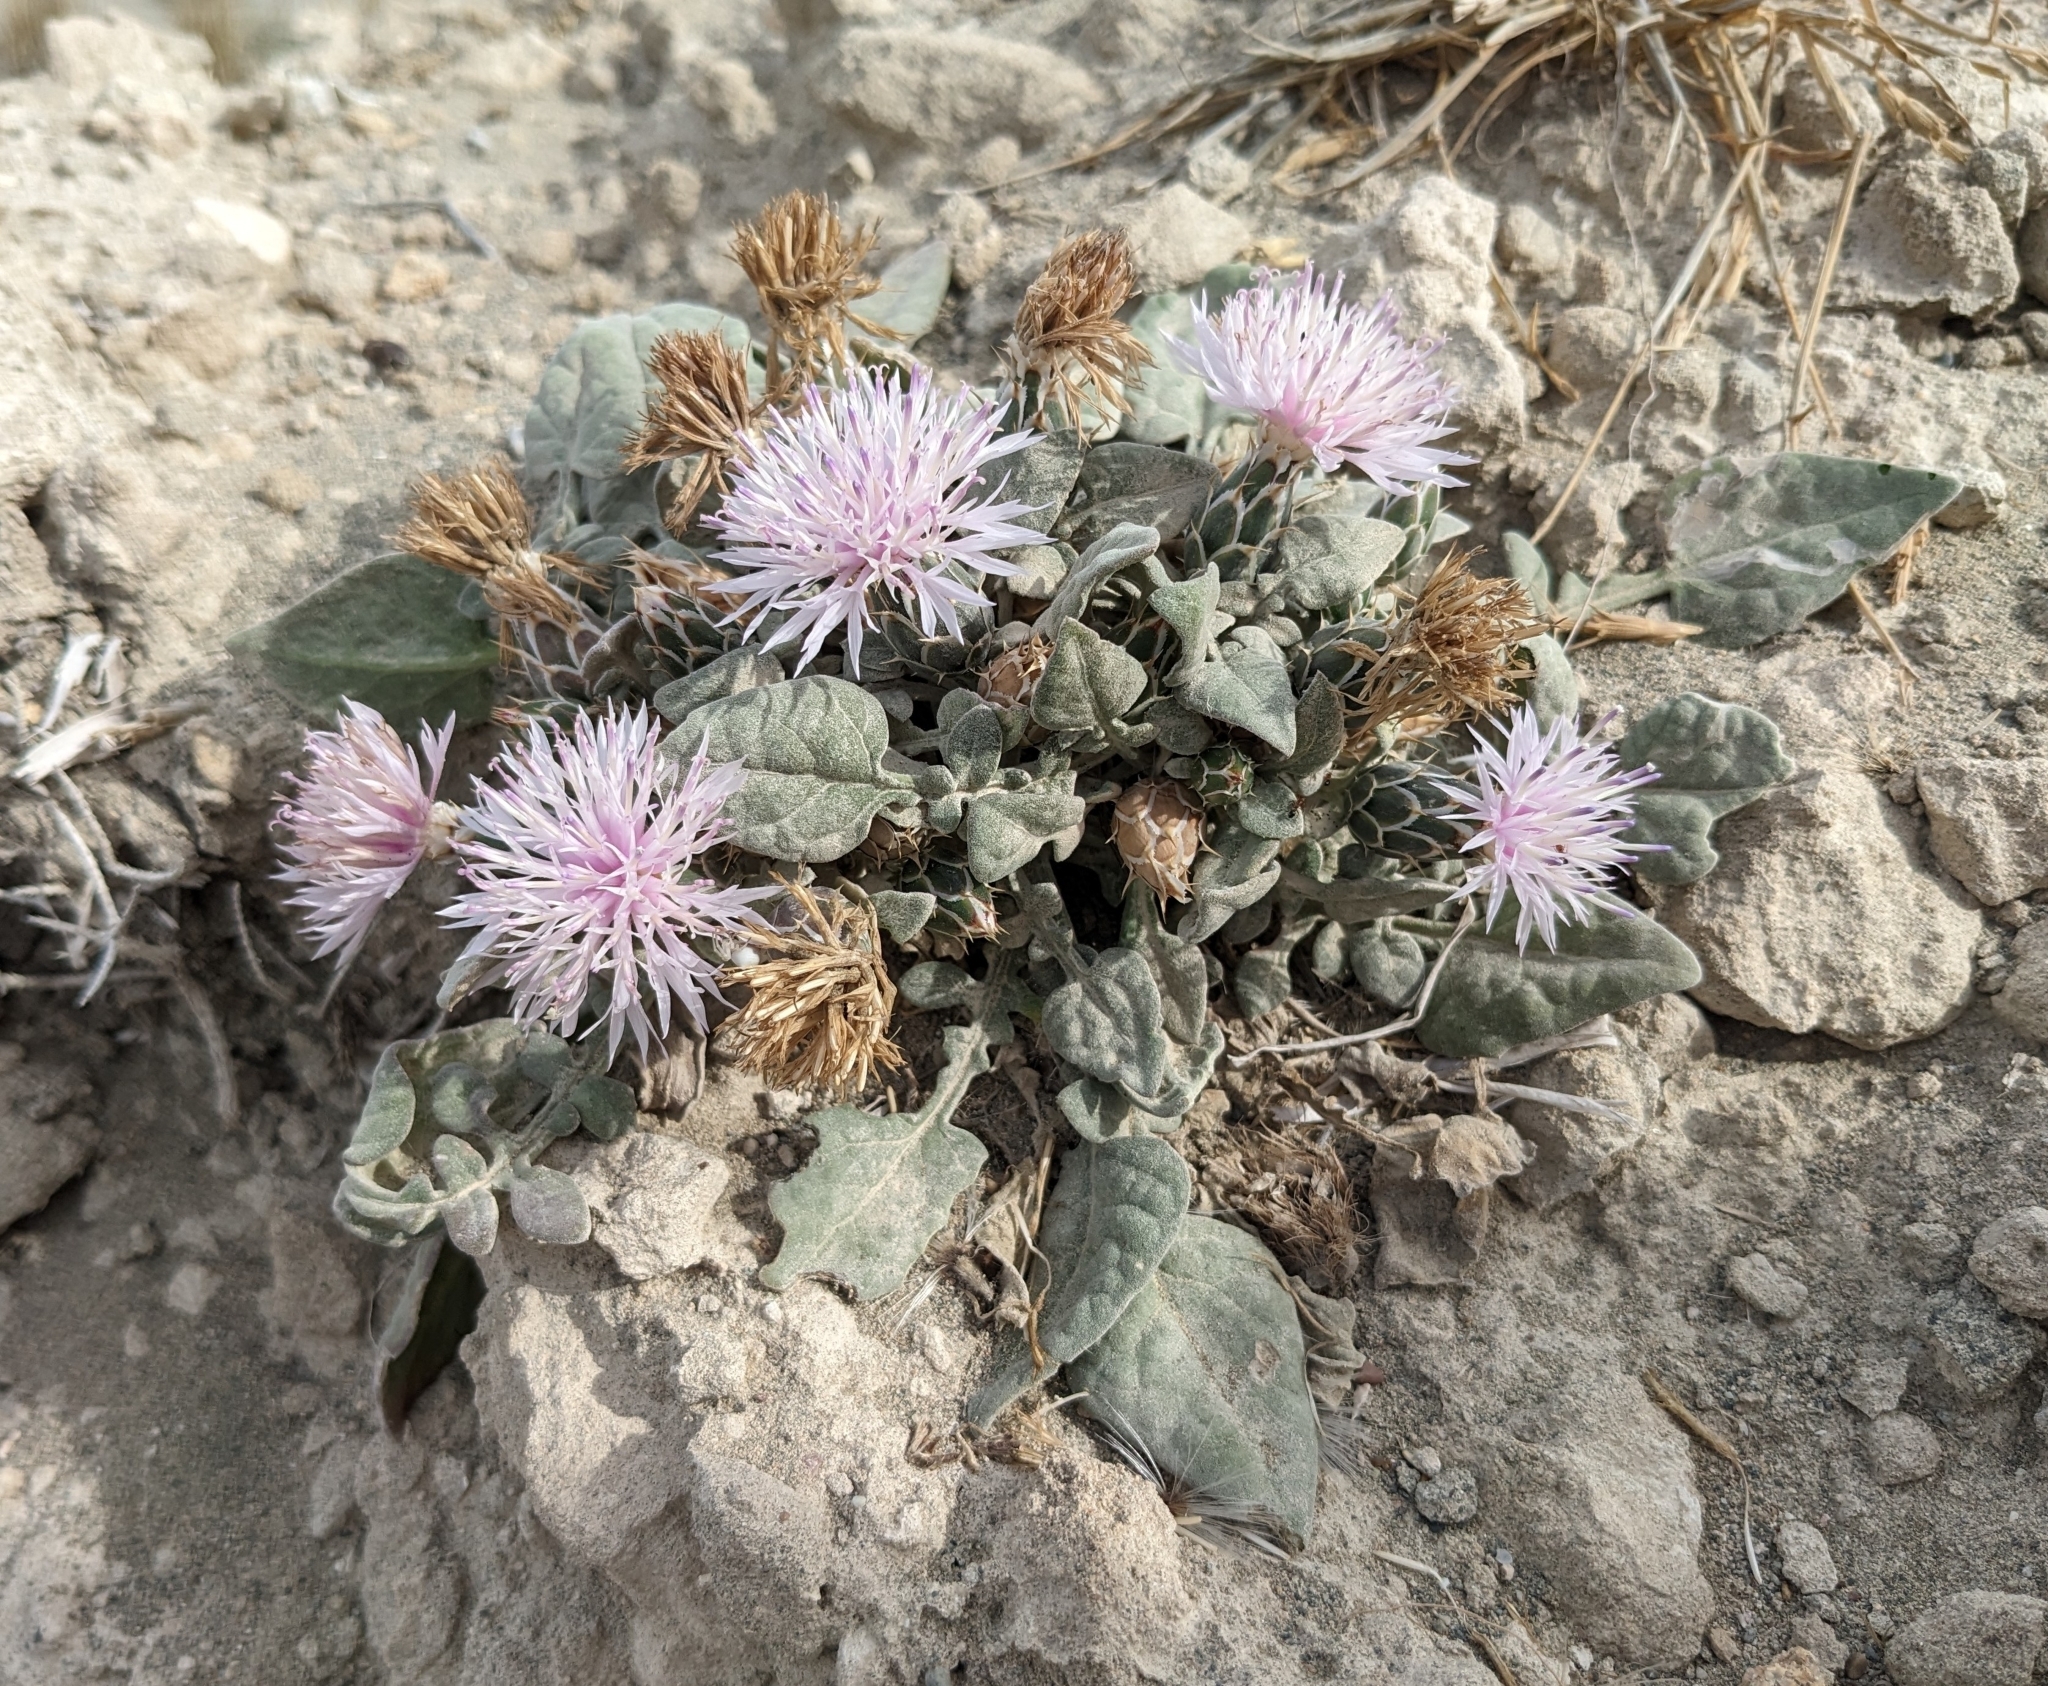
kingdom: Plantae
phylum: Tracheophyta
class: Magnoliopsida
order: Asterales
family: Asteraceae
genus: Crocodilium
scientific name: Crocodilium creticum
